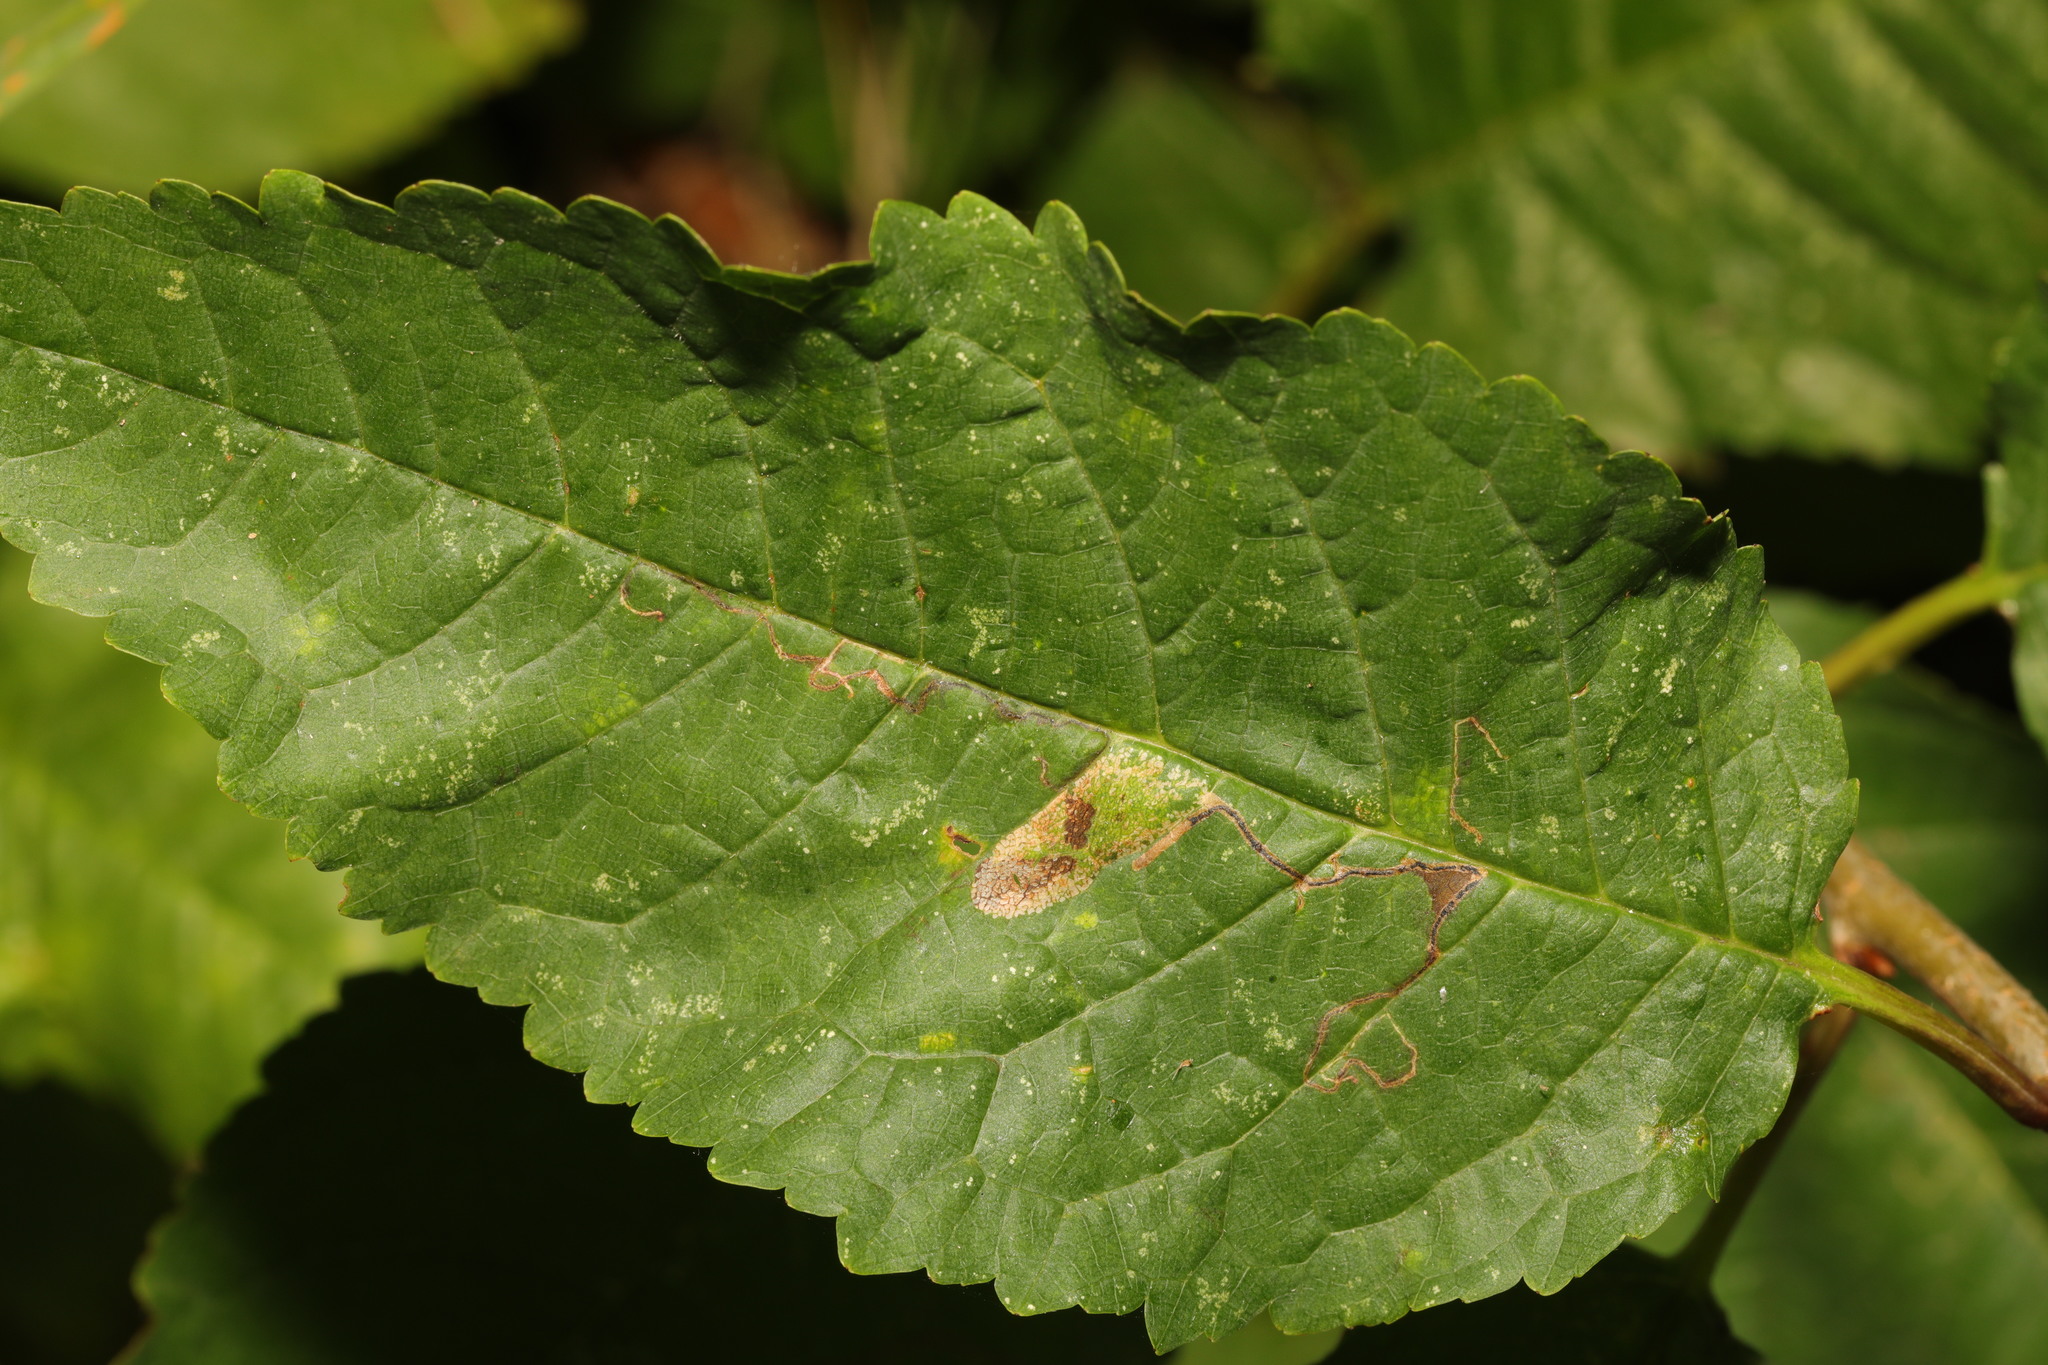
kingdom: Animalia
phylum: Arthropoda
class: Insecta
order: Lepidoptera
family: Gracillariidae
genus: Phyllonorycter
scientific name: Phyllonorycter cerasicolella
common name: Cherry midget
